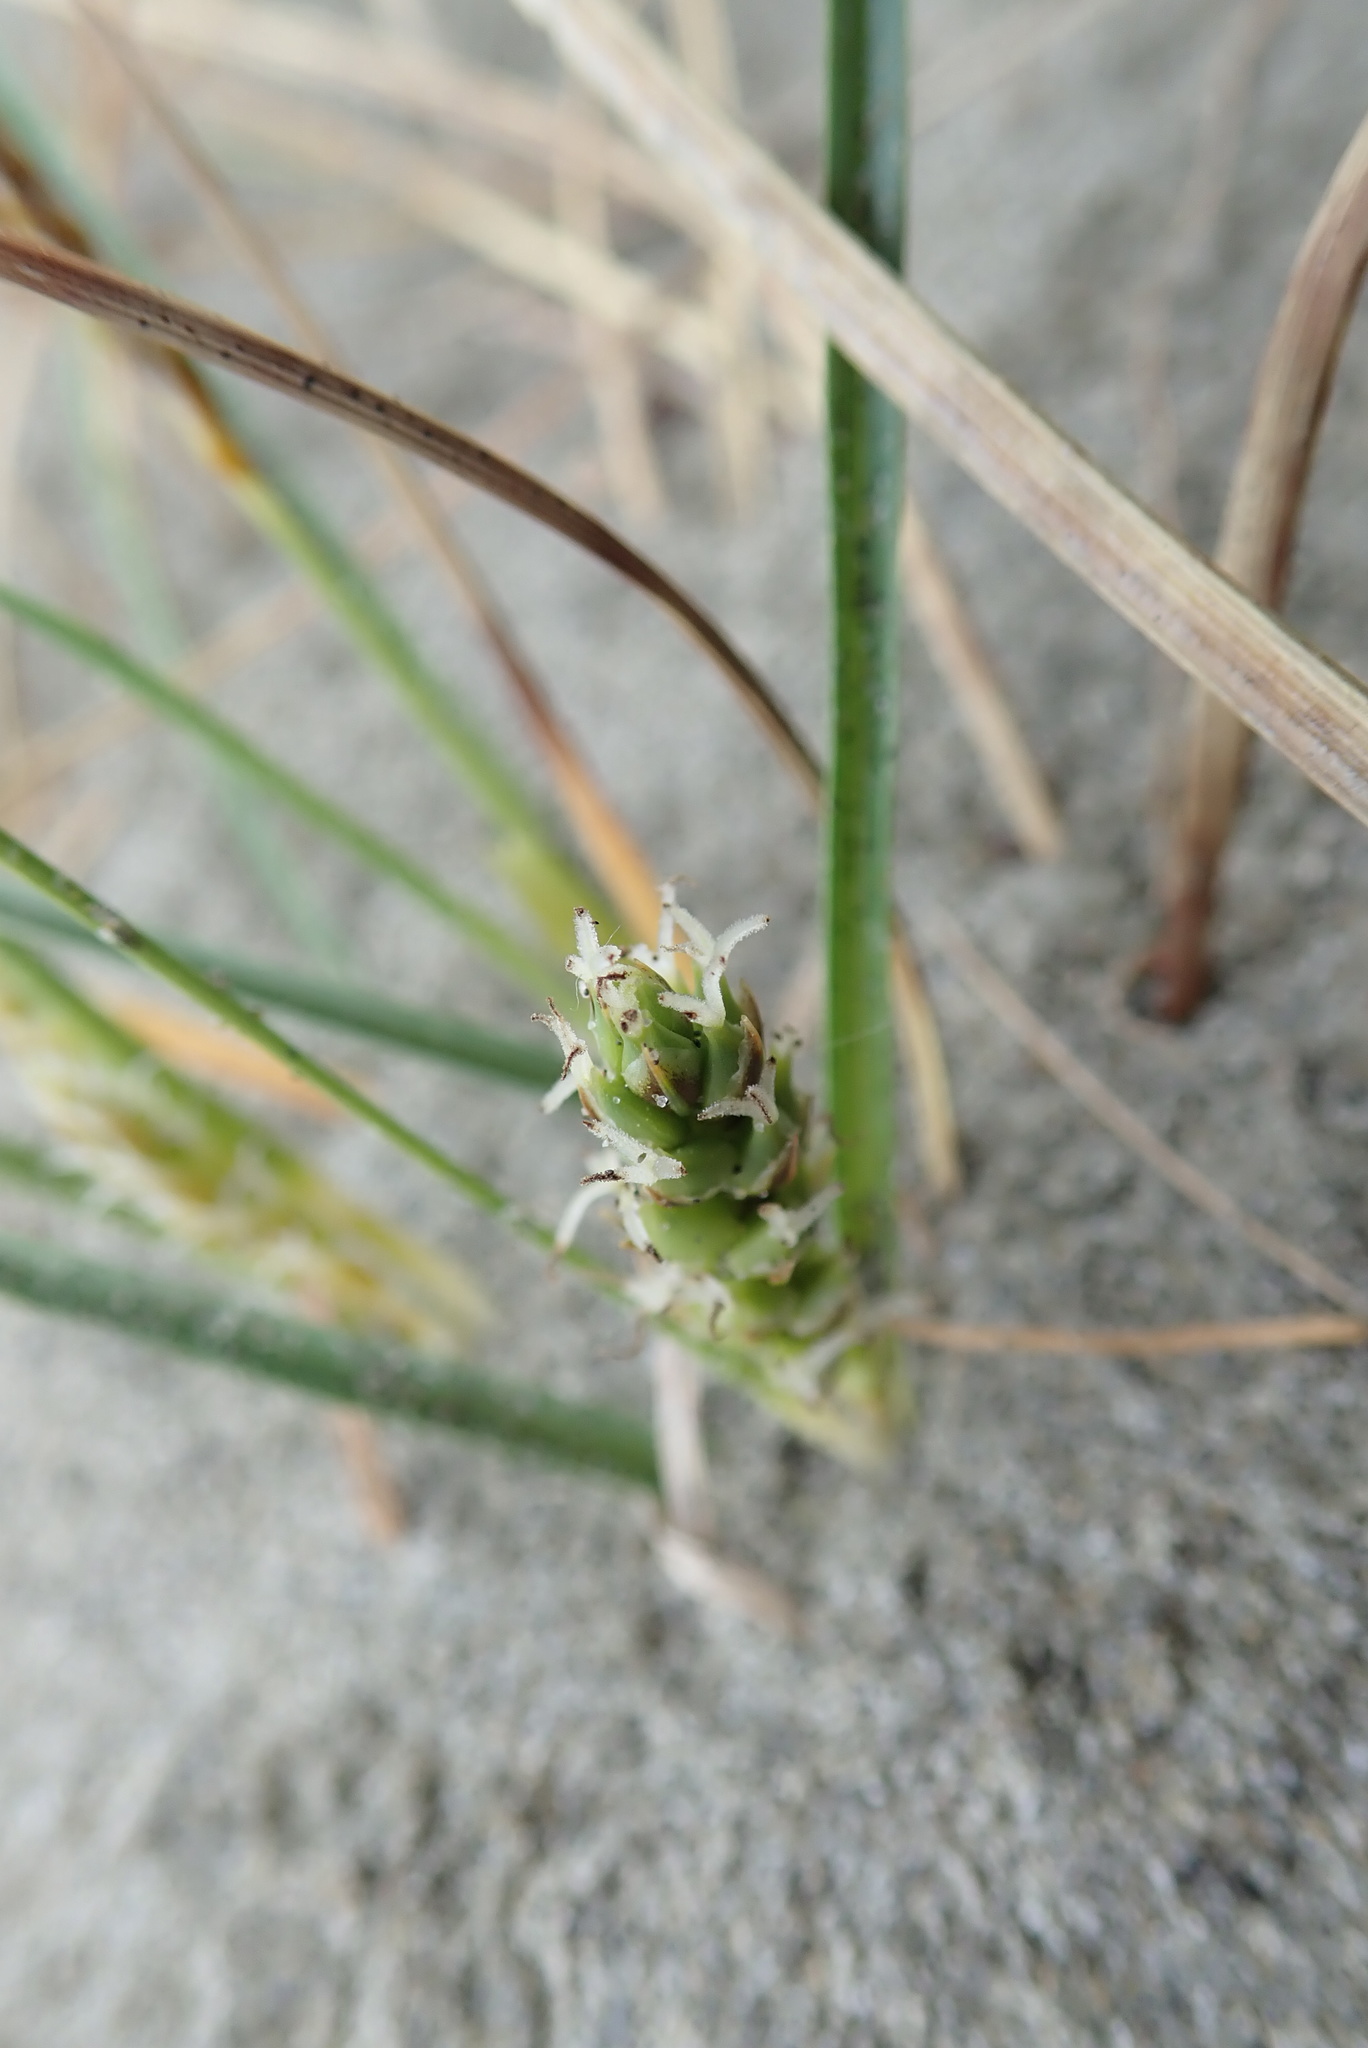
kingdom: Plantae
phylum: Tracheophyta
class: Liliopsida
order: Poales
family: Cyperaceae
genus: Carex
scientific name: Carex pumila
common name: Dwarf sedge
